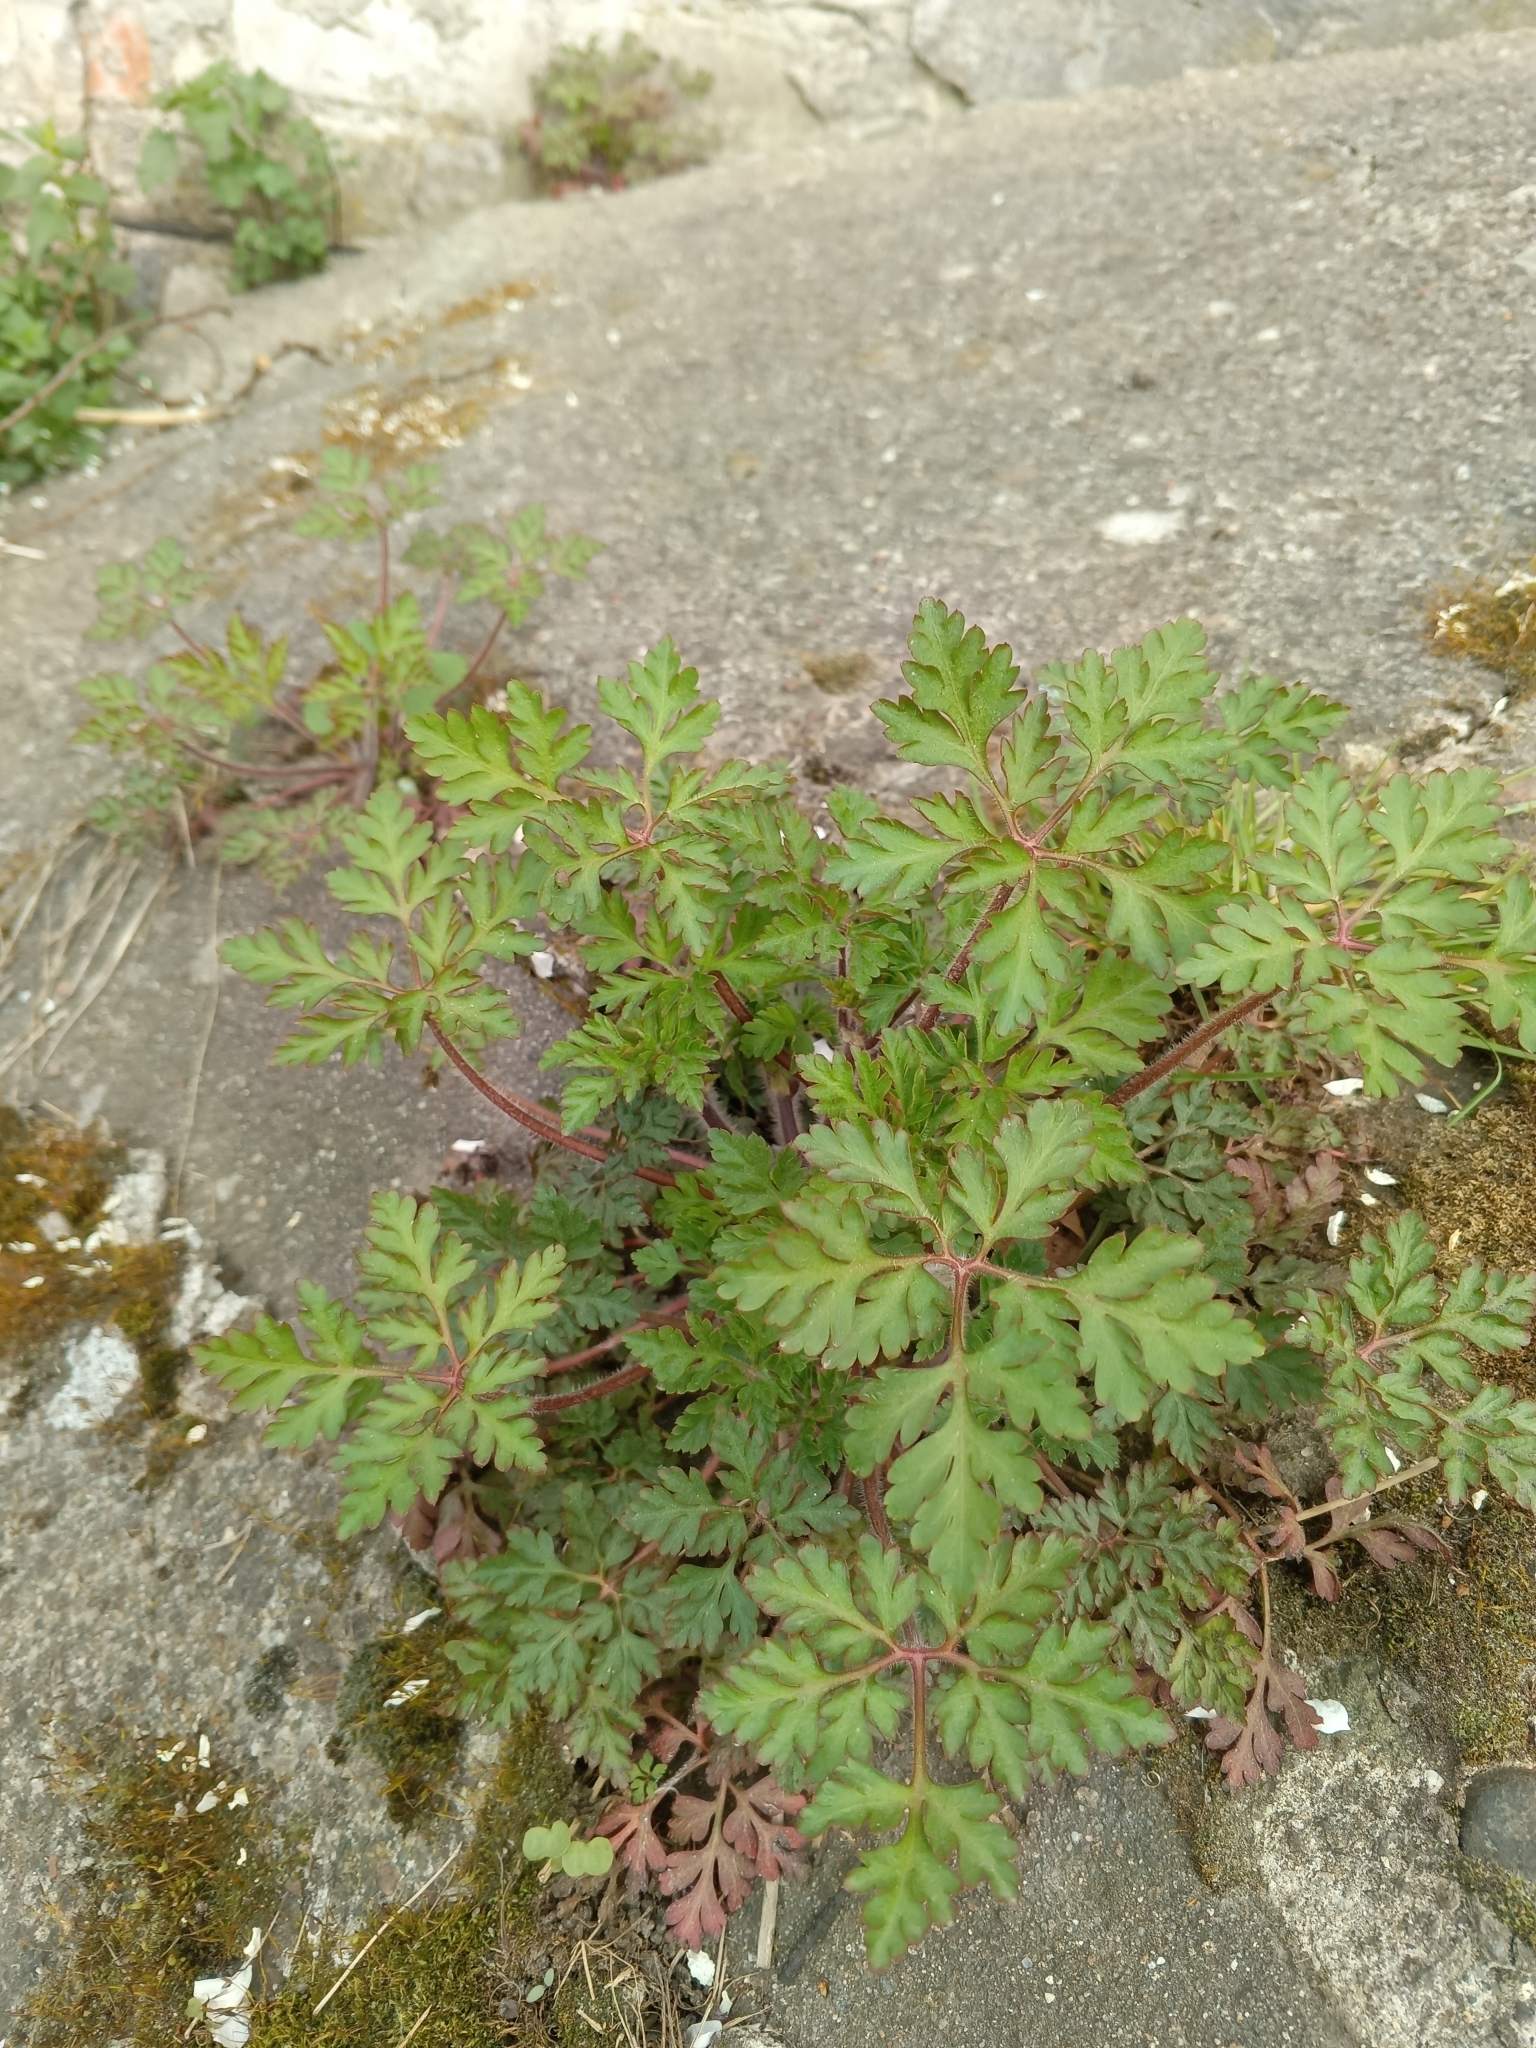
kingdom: Plantae
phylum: Tracheophyta
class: Magnoliopsida
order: Geraniales
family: Geraniaceae
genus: Geranium
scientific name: Geranium robertianum
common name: Herb-robert
